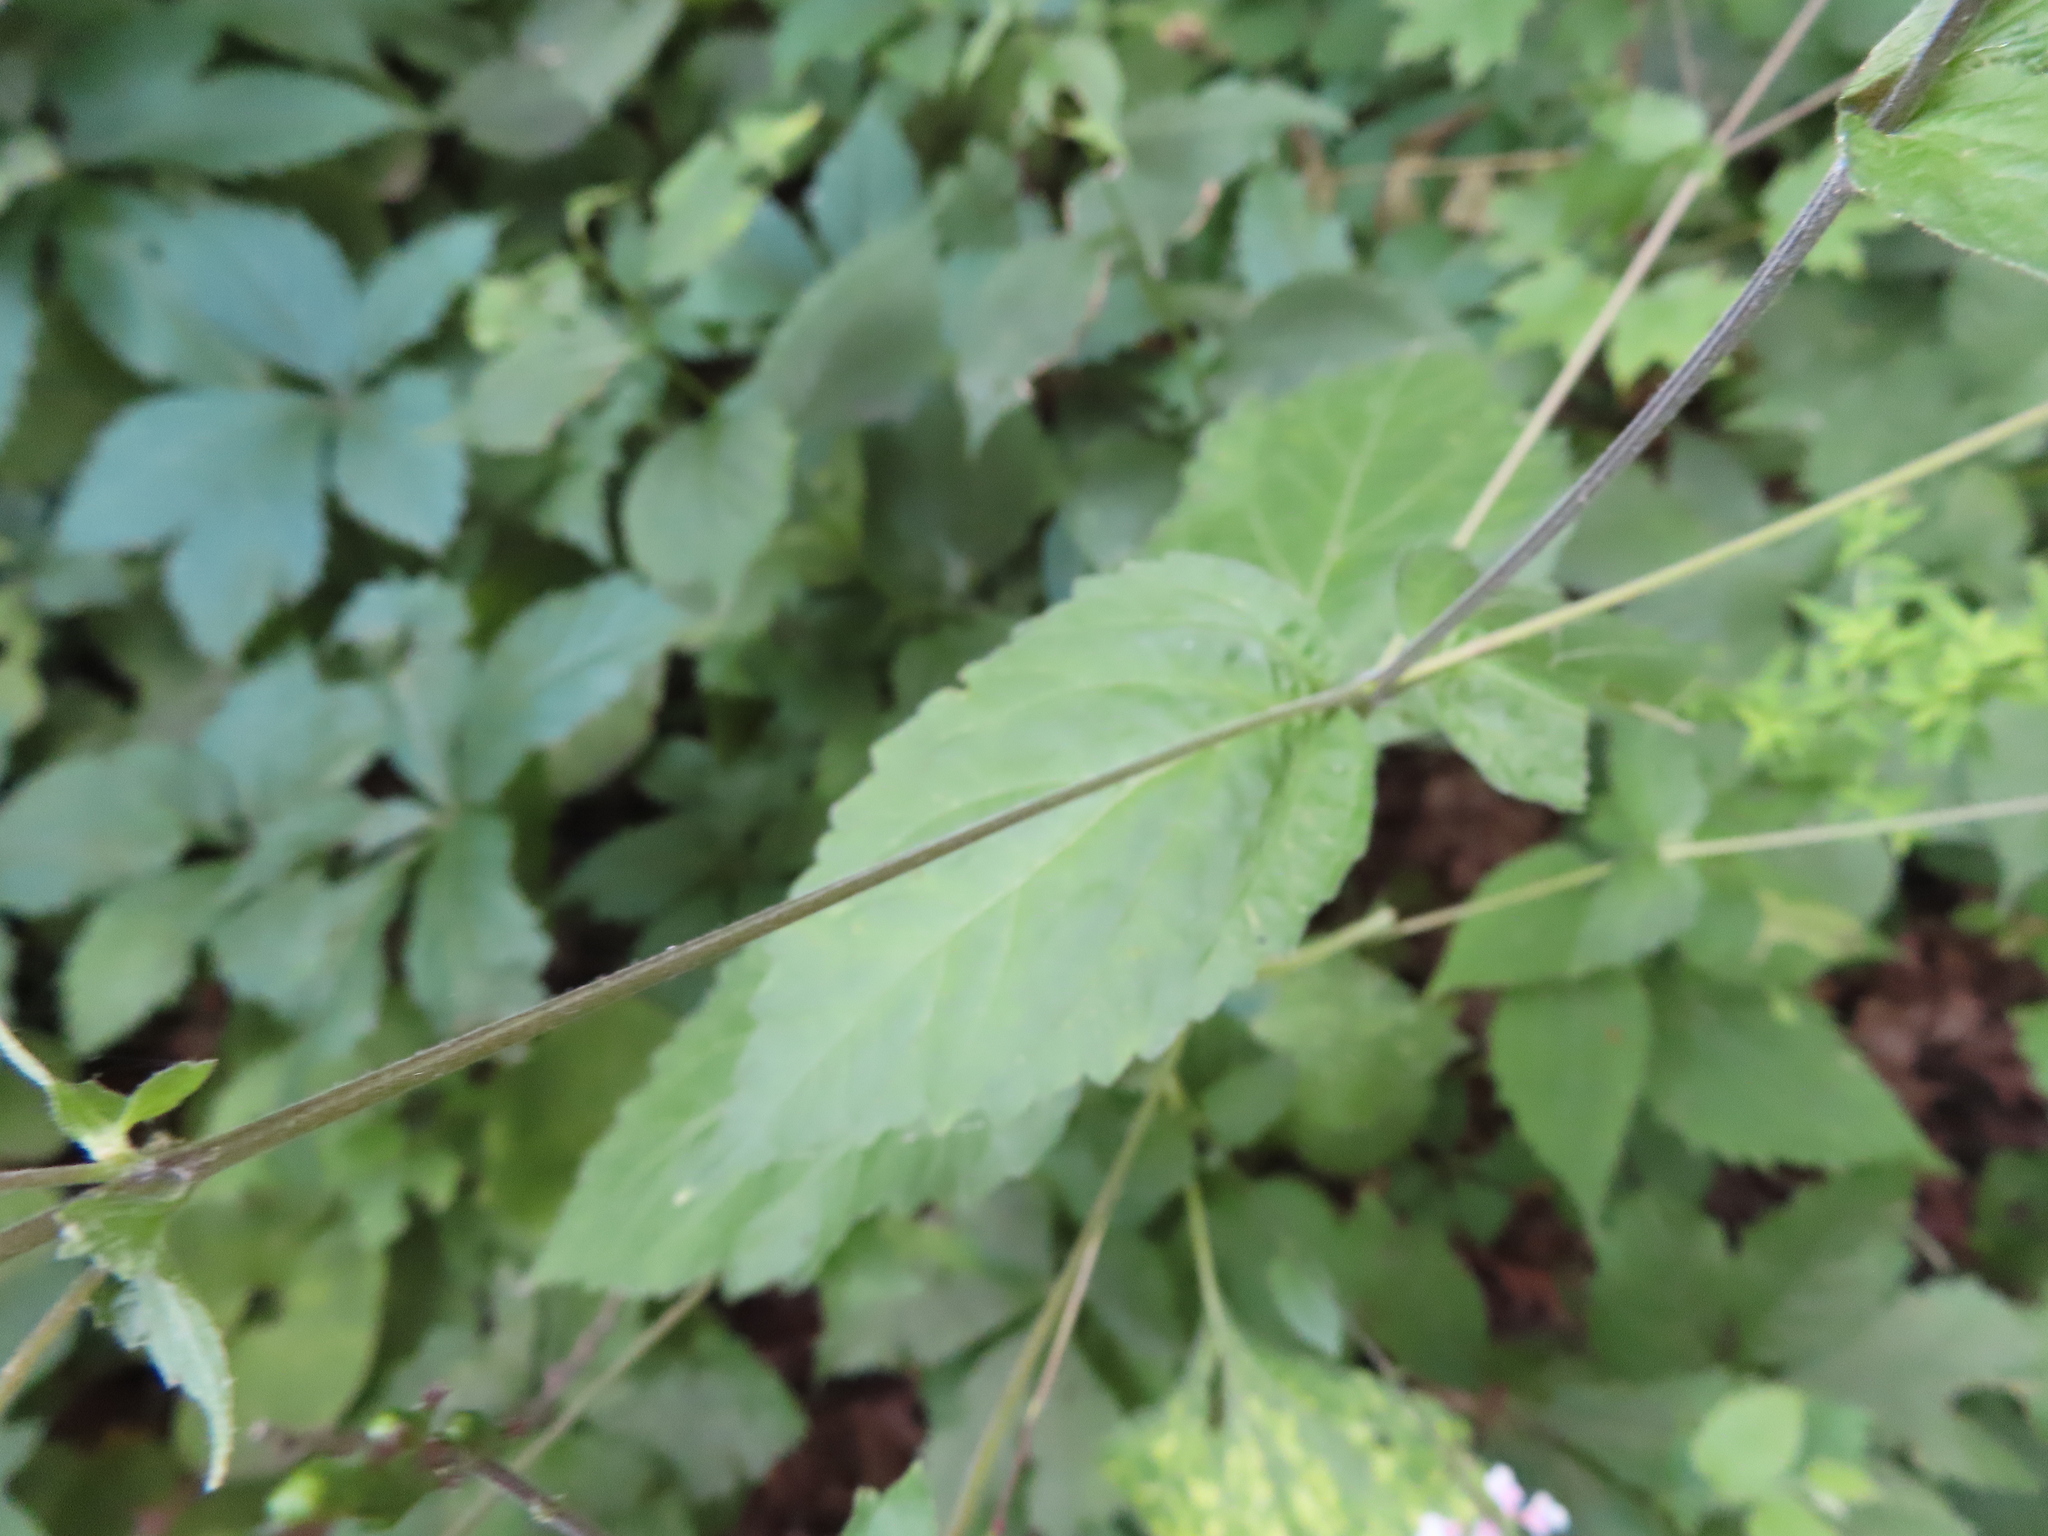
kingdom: Plantae
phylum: Tracheophyta
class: Magnoliopsida
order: Lamiales
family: Phrymaceae
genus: Phryma
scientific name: Phryma leptostachya
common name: American lopseed
